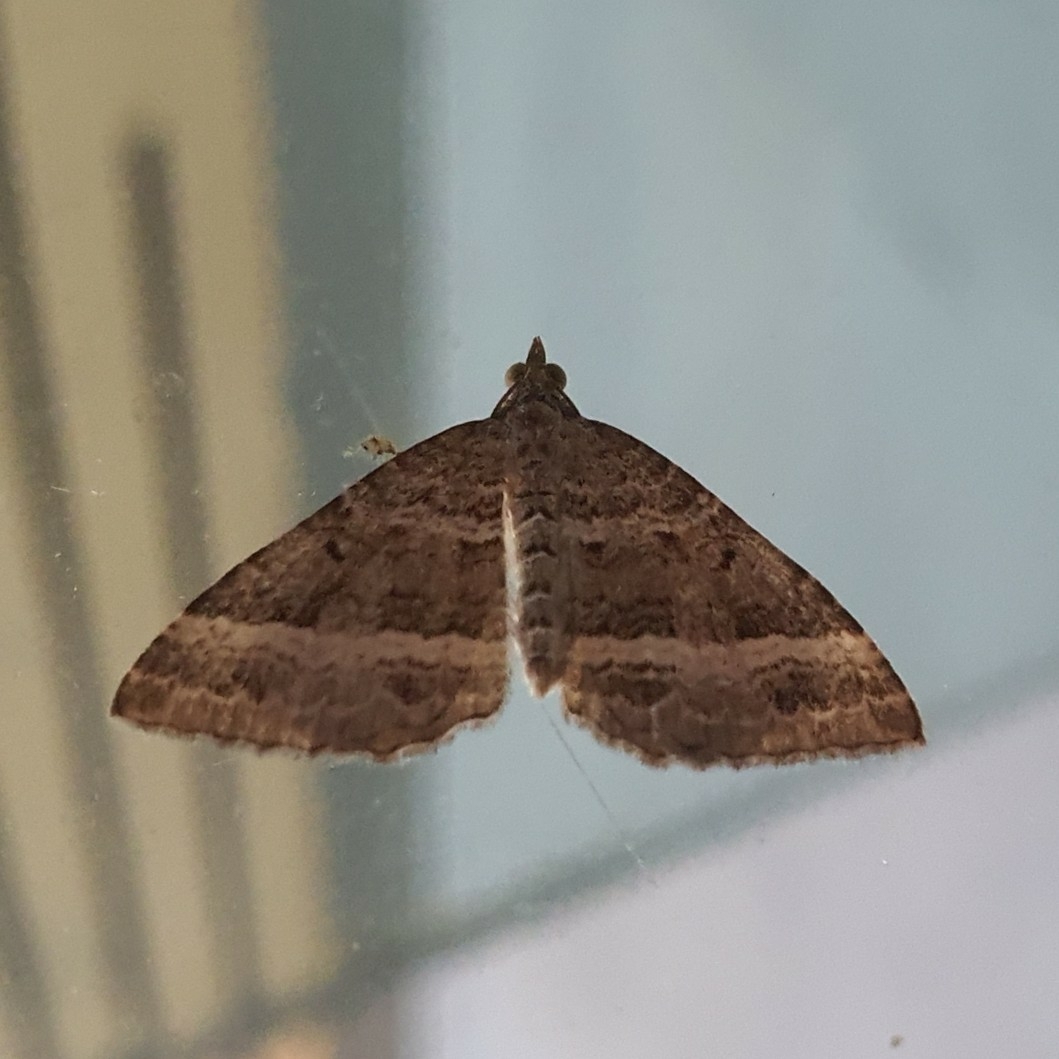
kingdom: Animalia
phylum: Arthropoda
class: Insecta
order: Lepidoptera
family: Geometridae
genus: Chrysolarentia
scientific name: Chrysolarentia subrectaria
